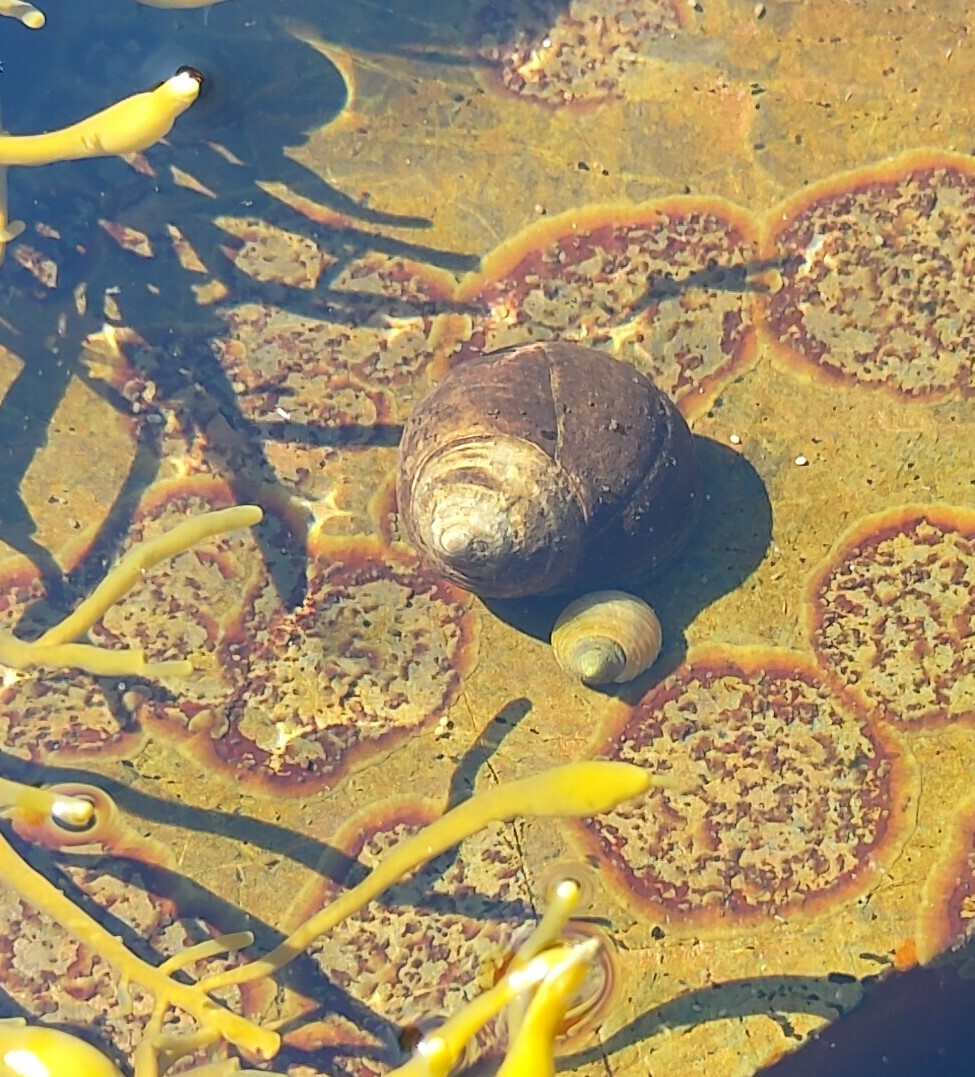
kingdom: Animalia
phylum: Mollusca
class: Gastropoda
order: Littorinimorpha
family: Littorinidae
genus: Littorina
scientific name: Littorina littorea
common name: Common periwinkle
